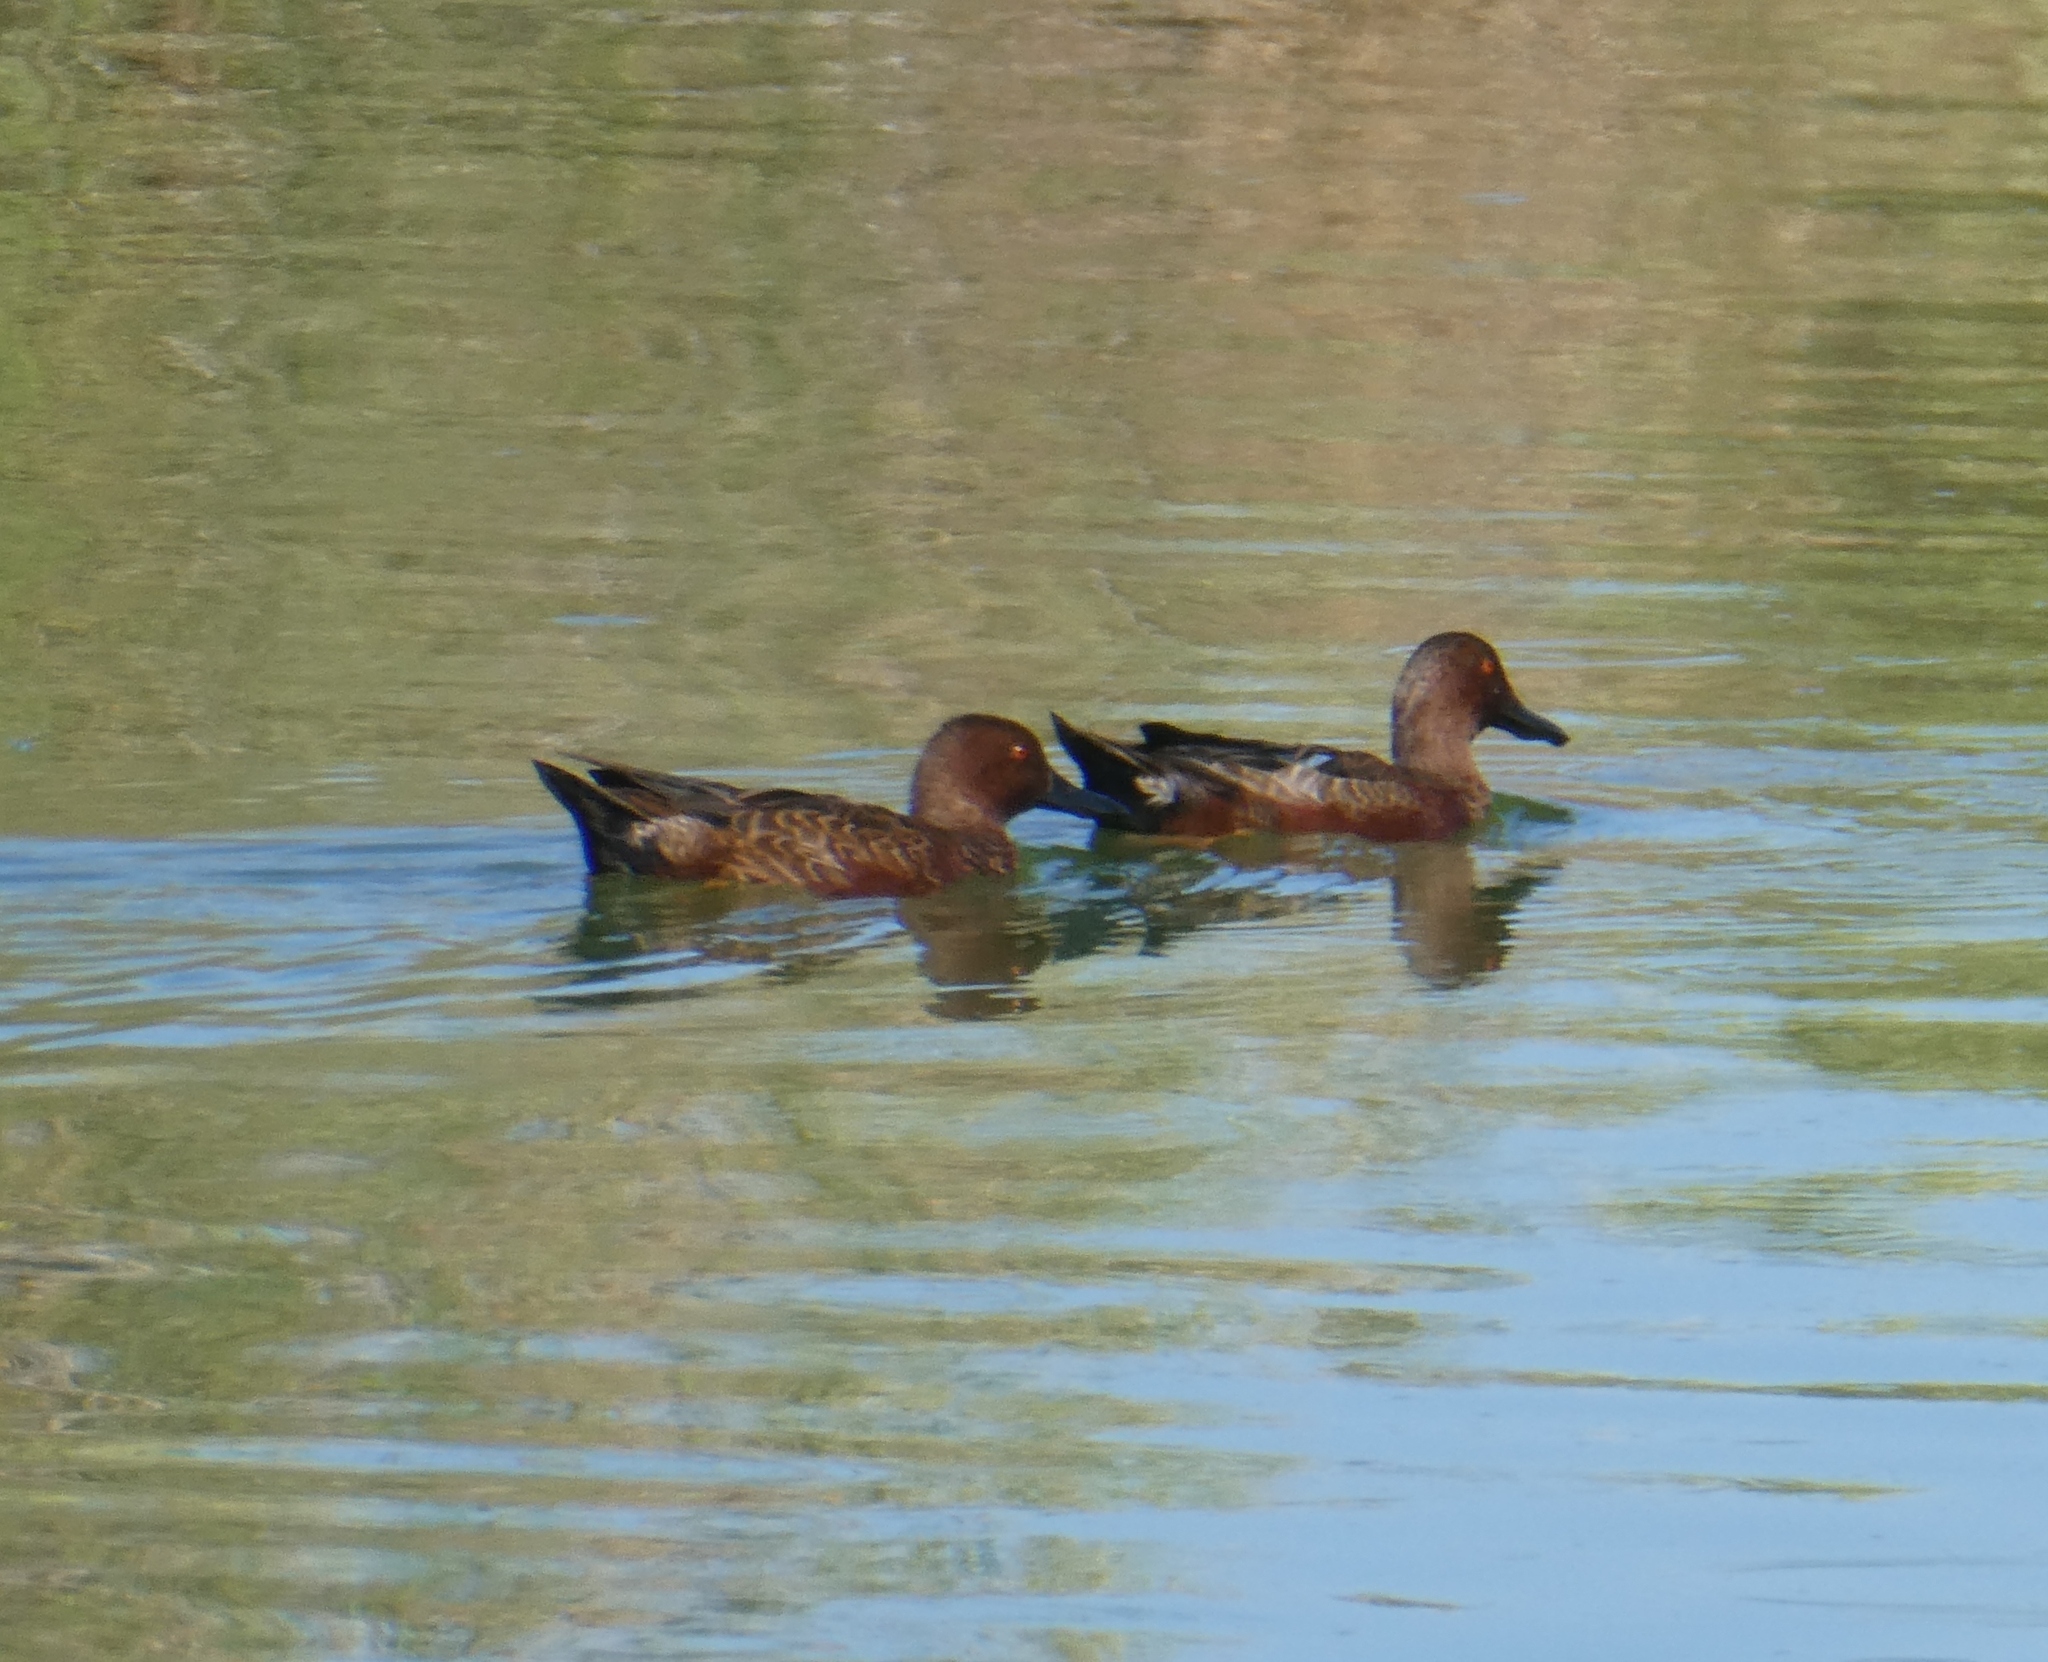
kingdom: Animalia
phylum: Chordata
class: Aves
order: Anseriformes
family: Anatidae
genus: Spatula
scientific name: Spatula cyanoptera
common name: Cinnamon teal
